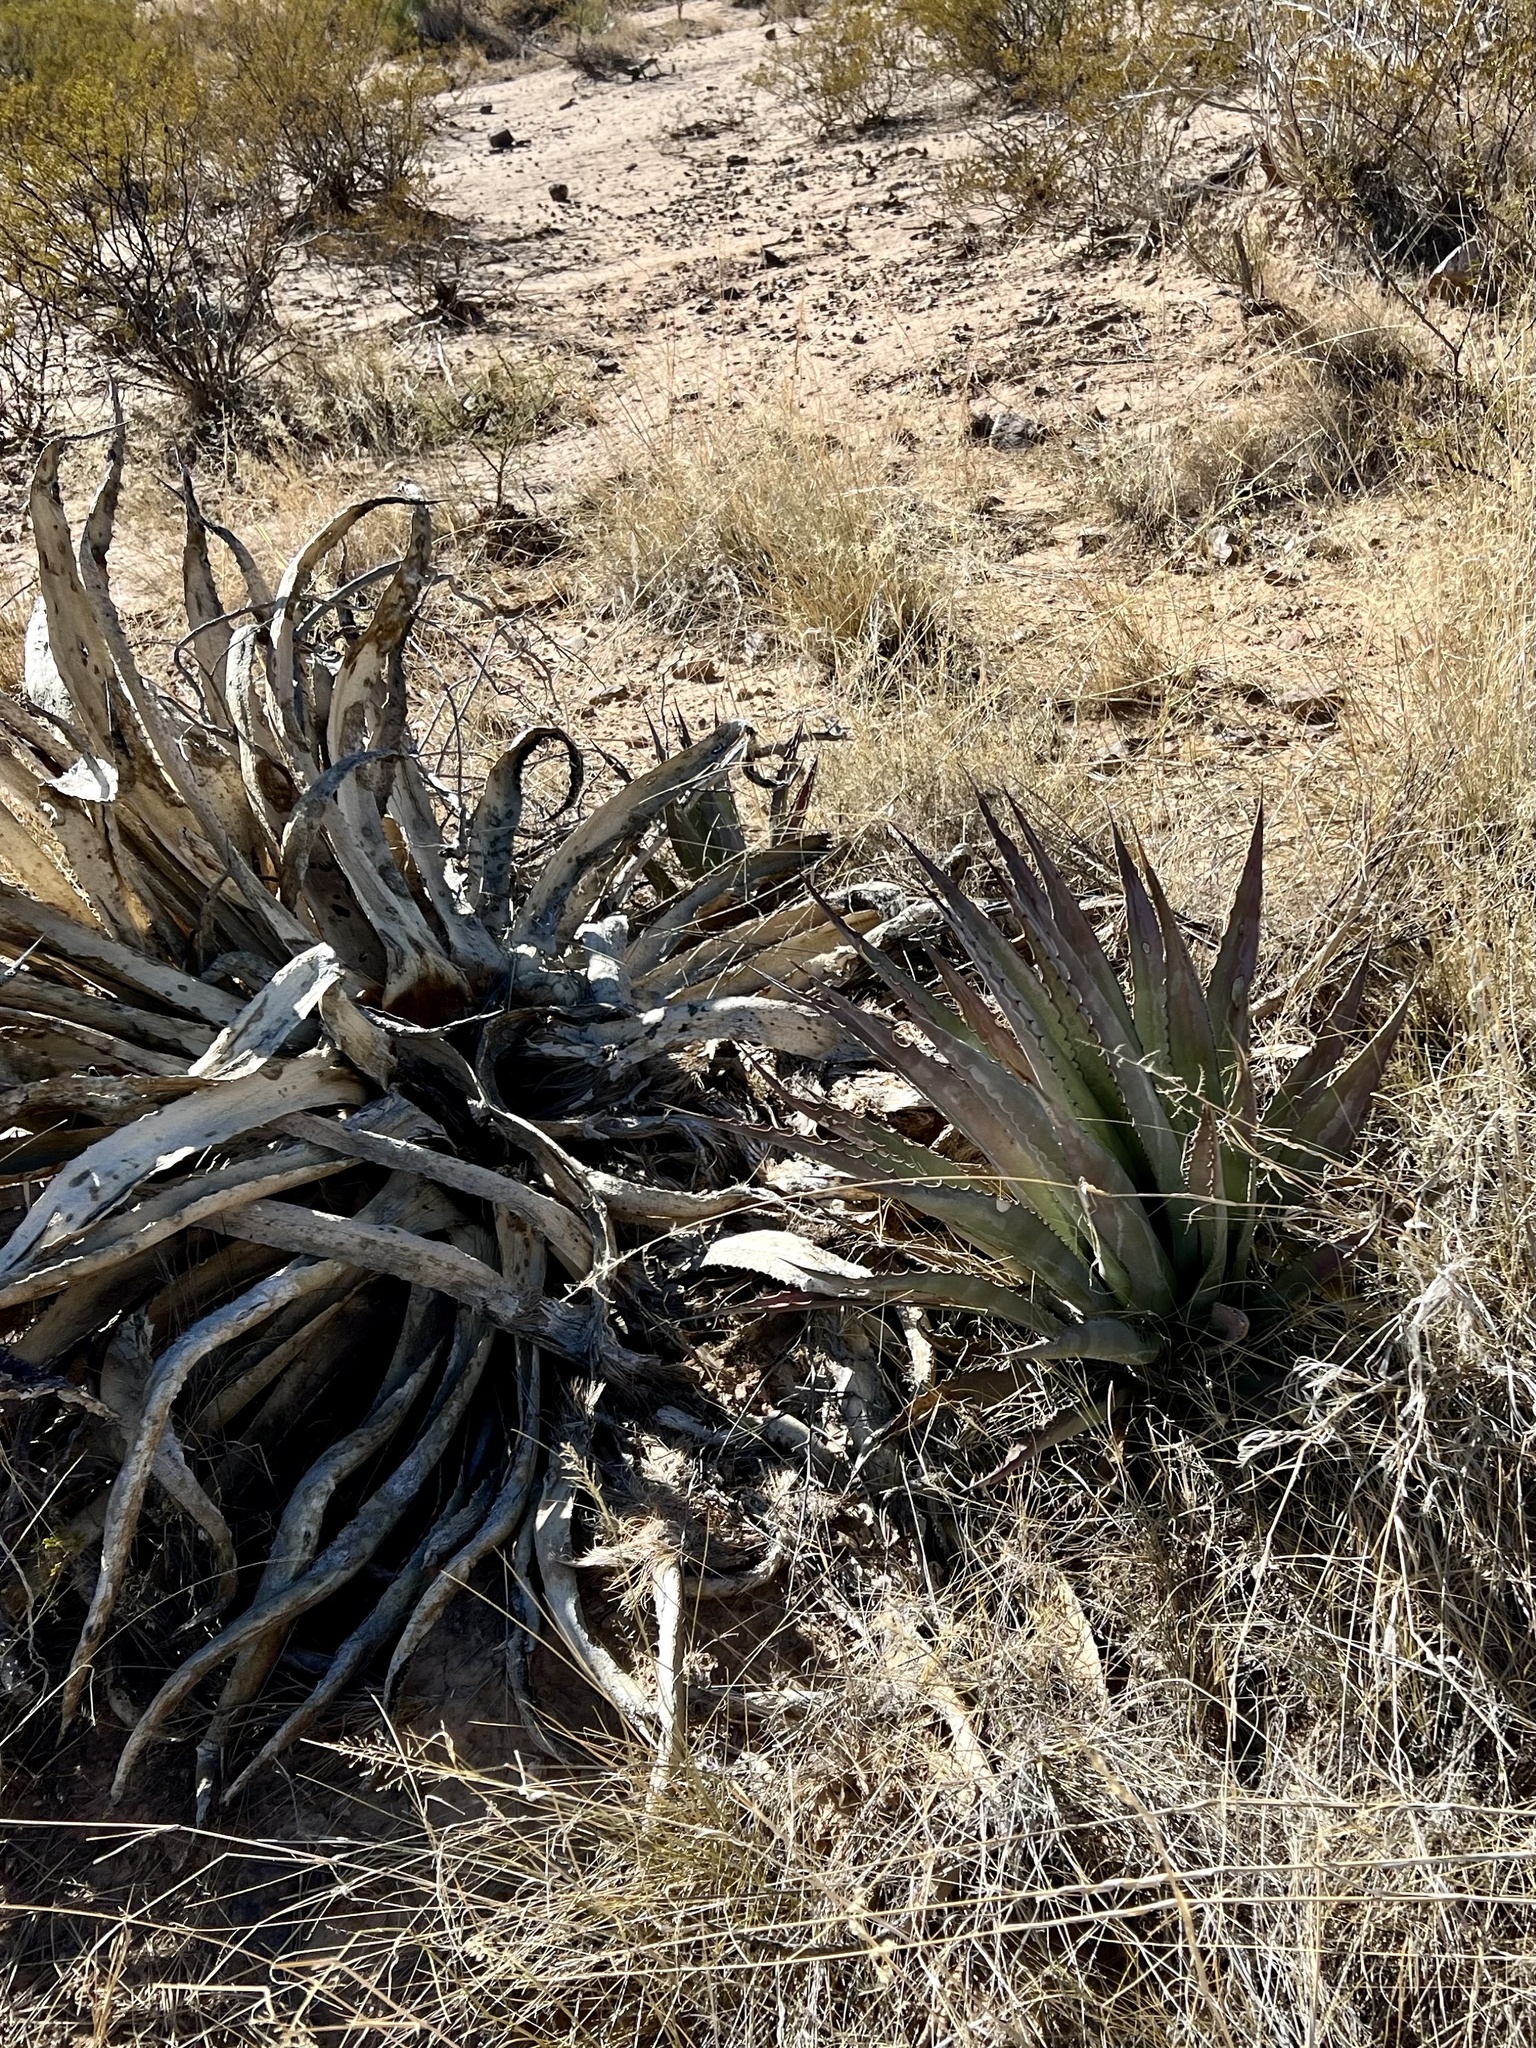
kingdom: Plantae
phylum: Tracheophyta
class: Liliopsida
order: Asparagales
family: Asparagaceae
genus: Agave
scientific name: Agave palmeri
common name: Palmer agave
